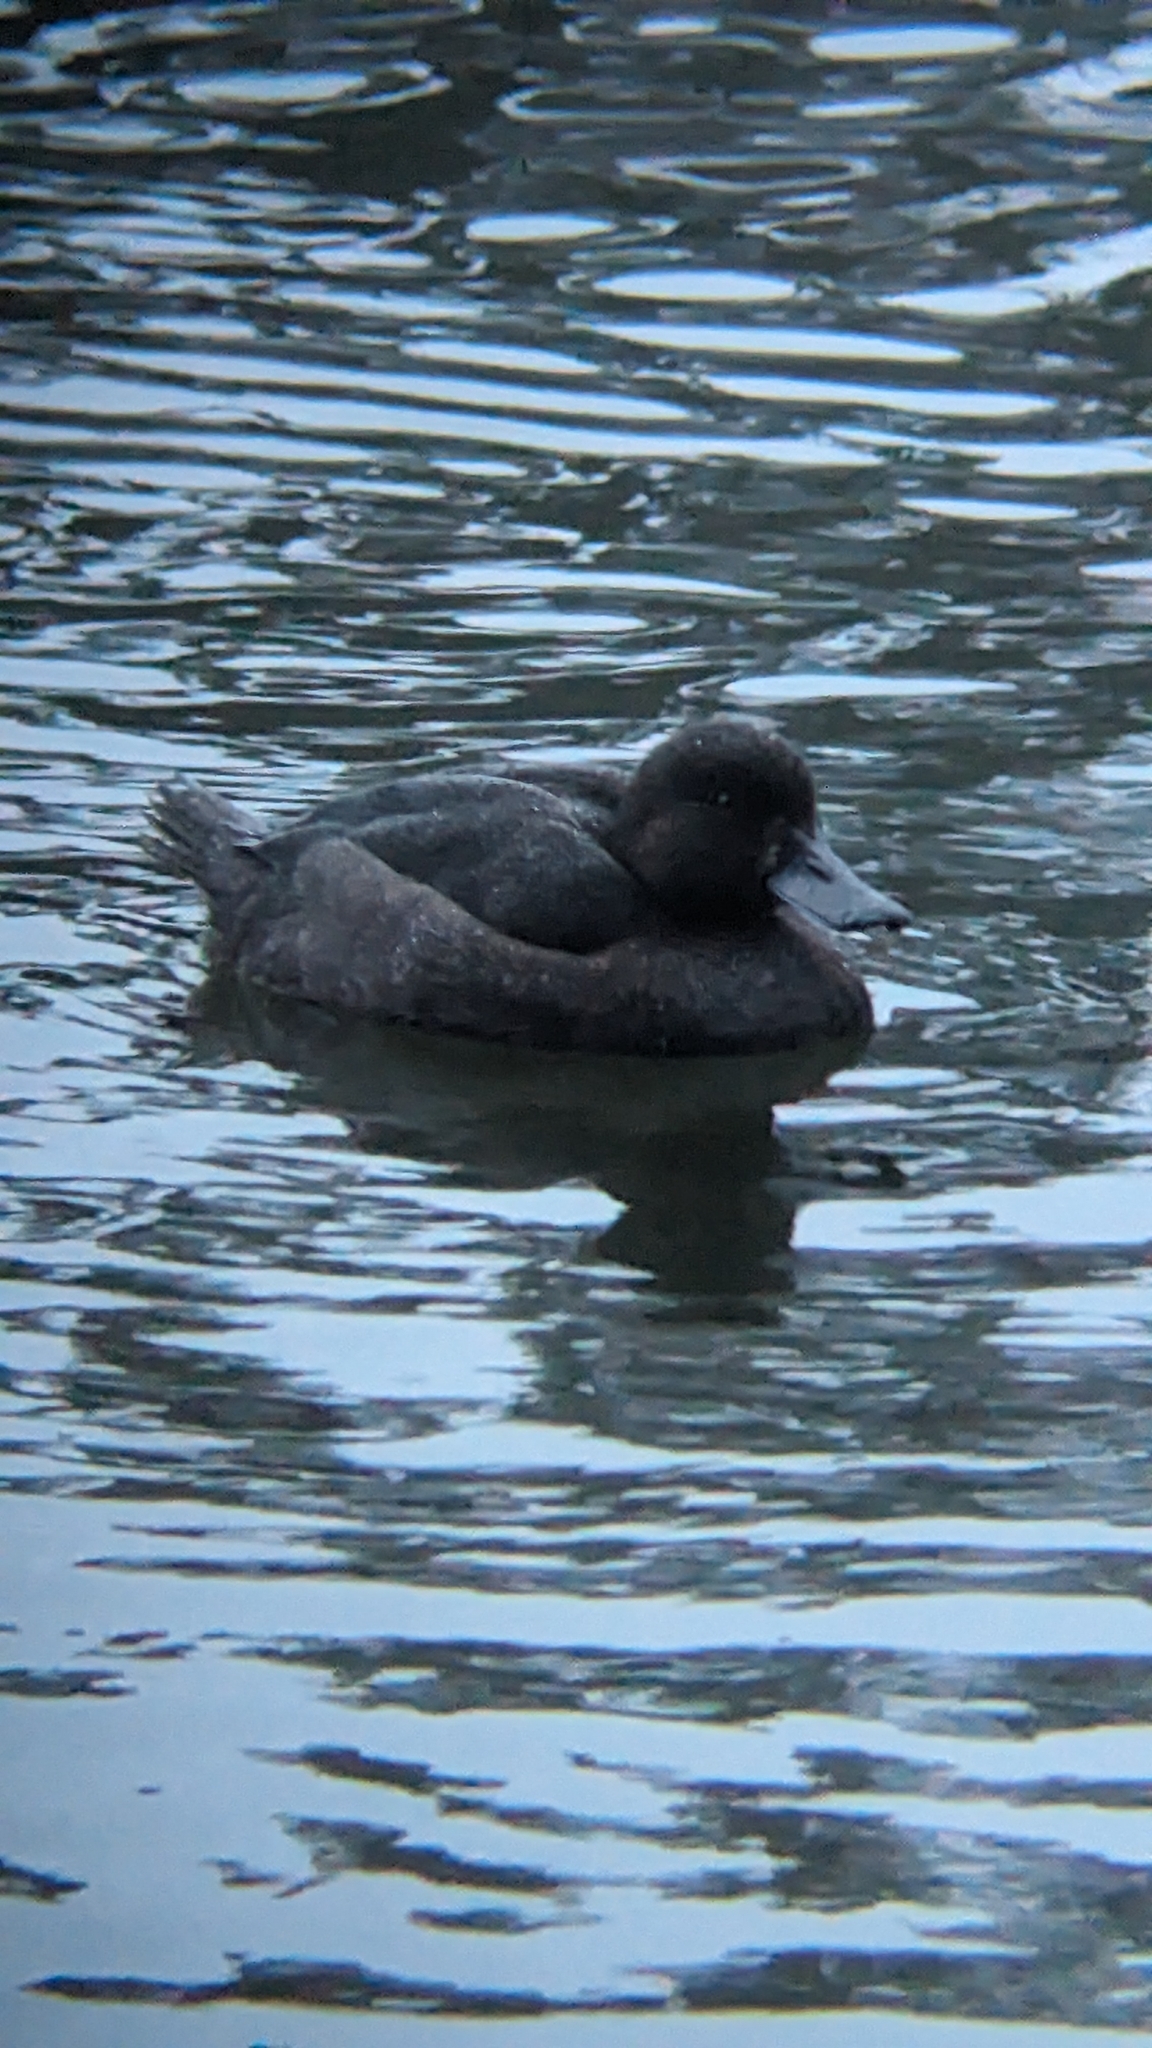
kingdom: Animalia
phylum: Chordata
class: Aves
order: Anseriformes
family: Anatidae
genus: Aythya
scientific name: Aythya novaeseelandiae
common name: New zealand scaup
